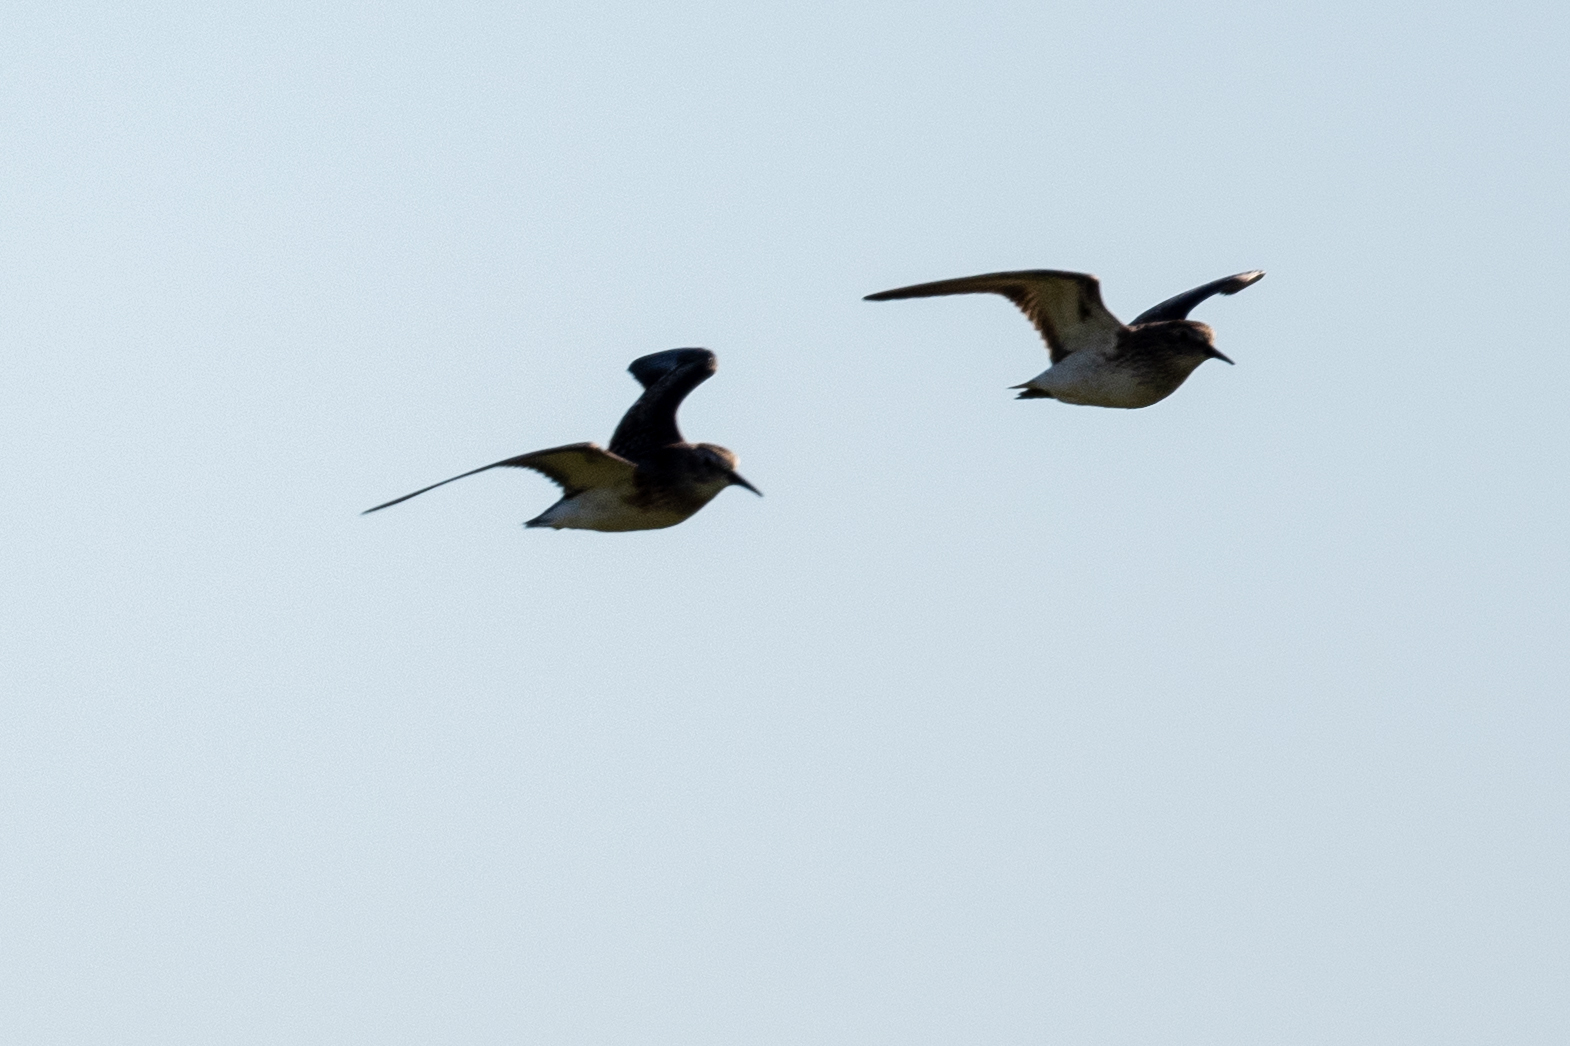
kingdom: Animalia
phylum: Chordata
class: Aves
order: Charadriiformes
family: Scolopacidae
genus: Calidris
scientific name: Calidris minutilla
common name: Least sandpiper
